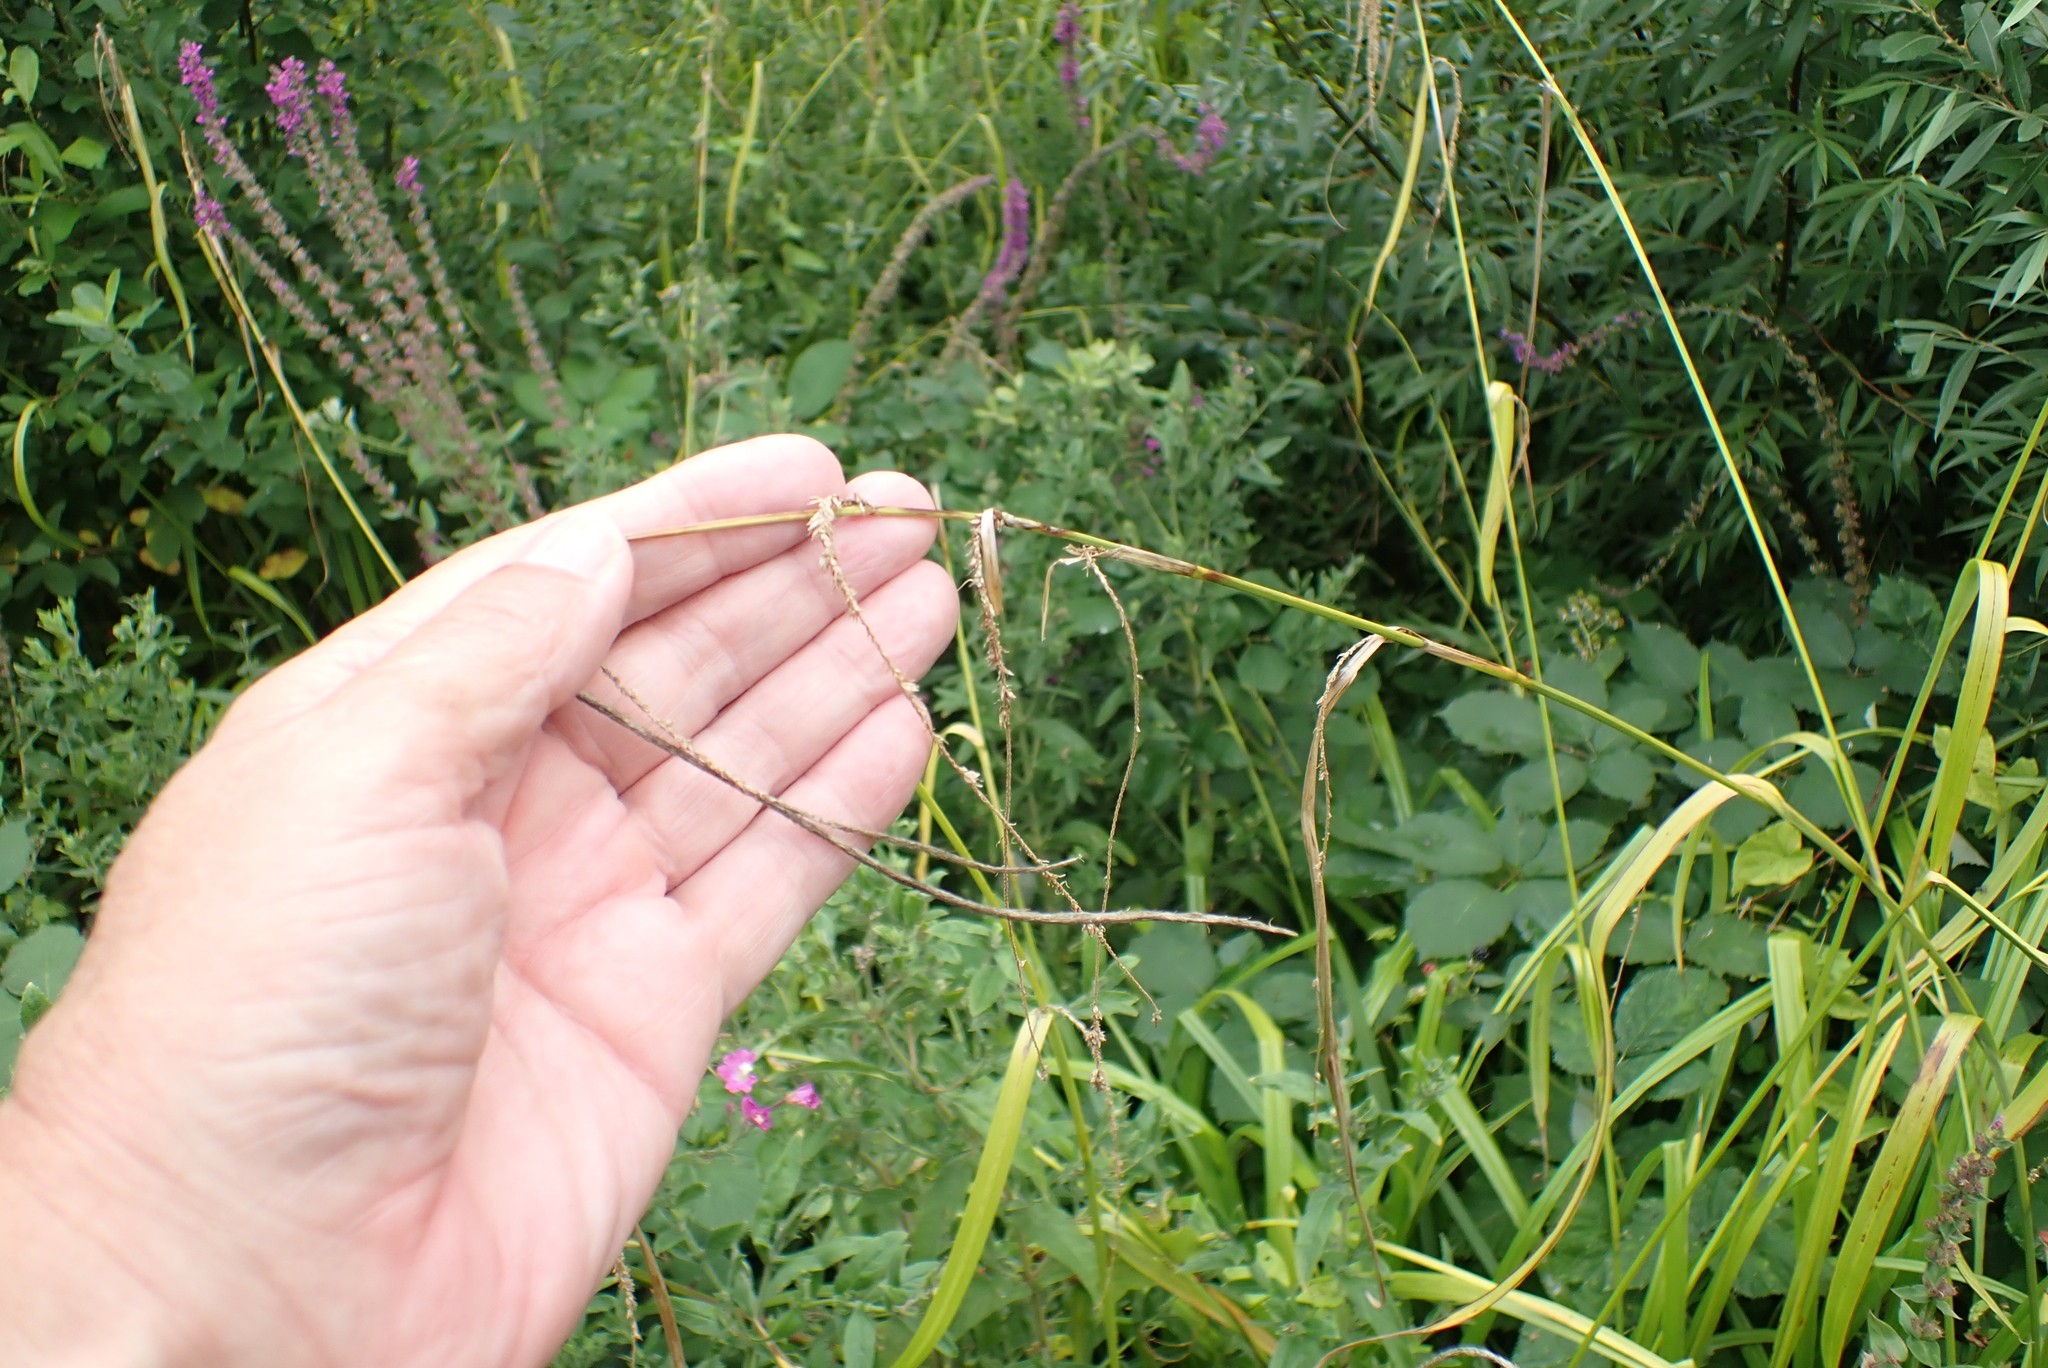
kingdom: Plantae
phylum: Tracheophyta
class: Liliopsida
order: Poales
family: Cyperaceae
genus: Carex
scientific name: Carex pendula
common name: Pendulous sedge
